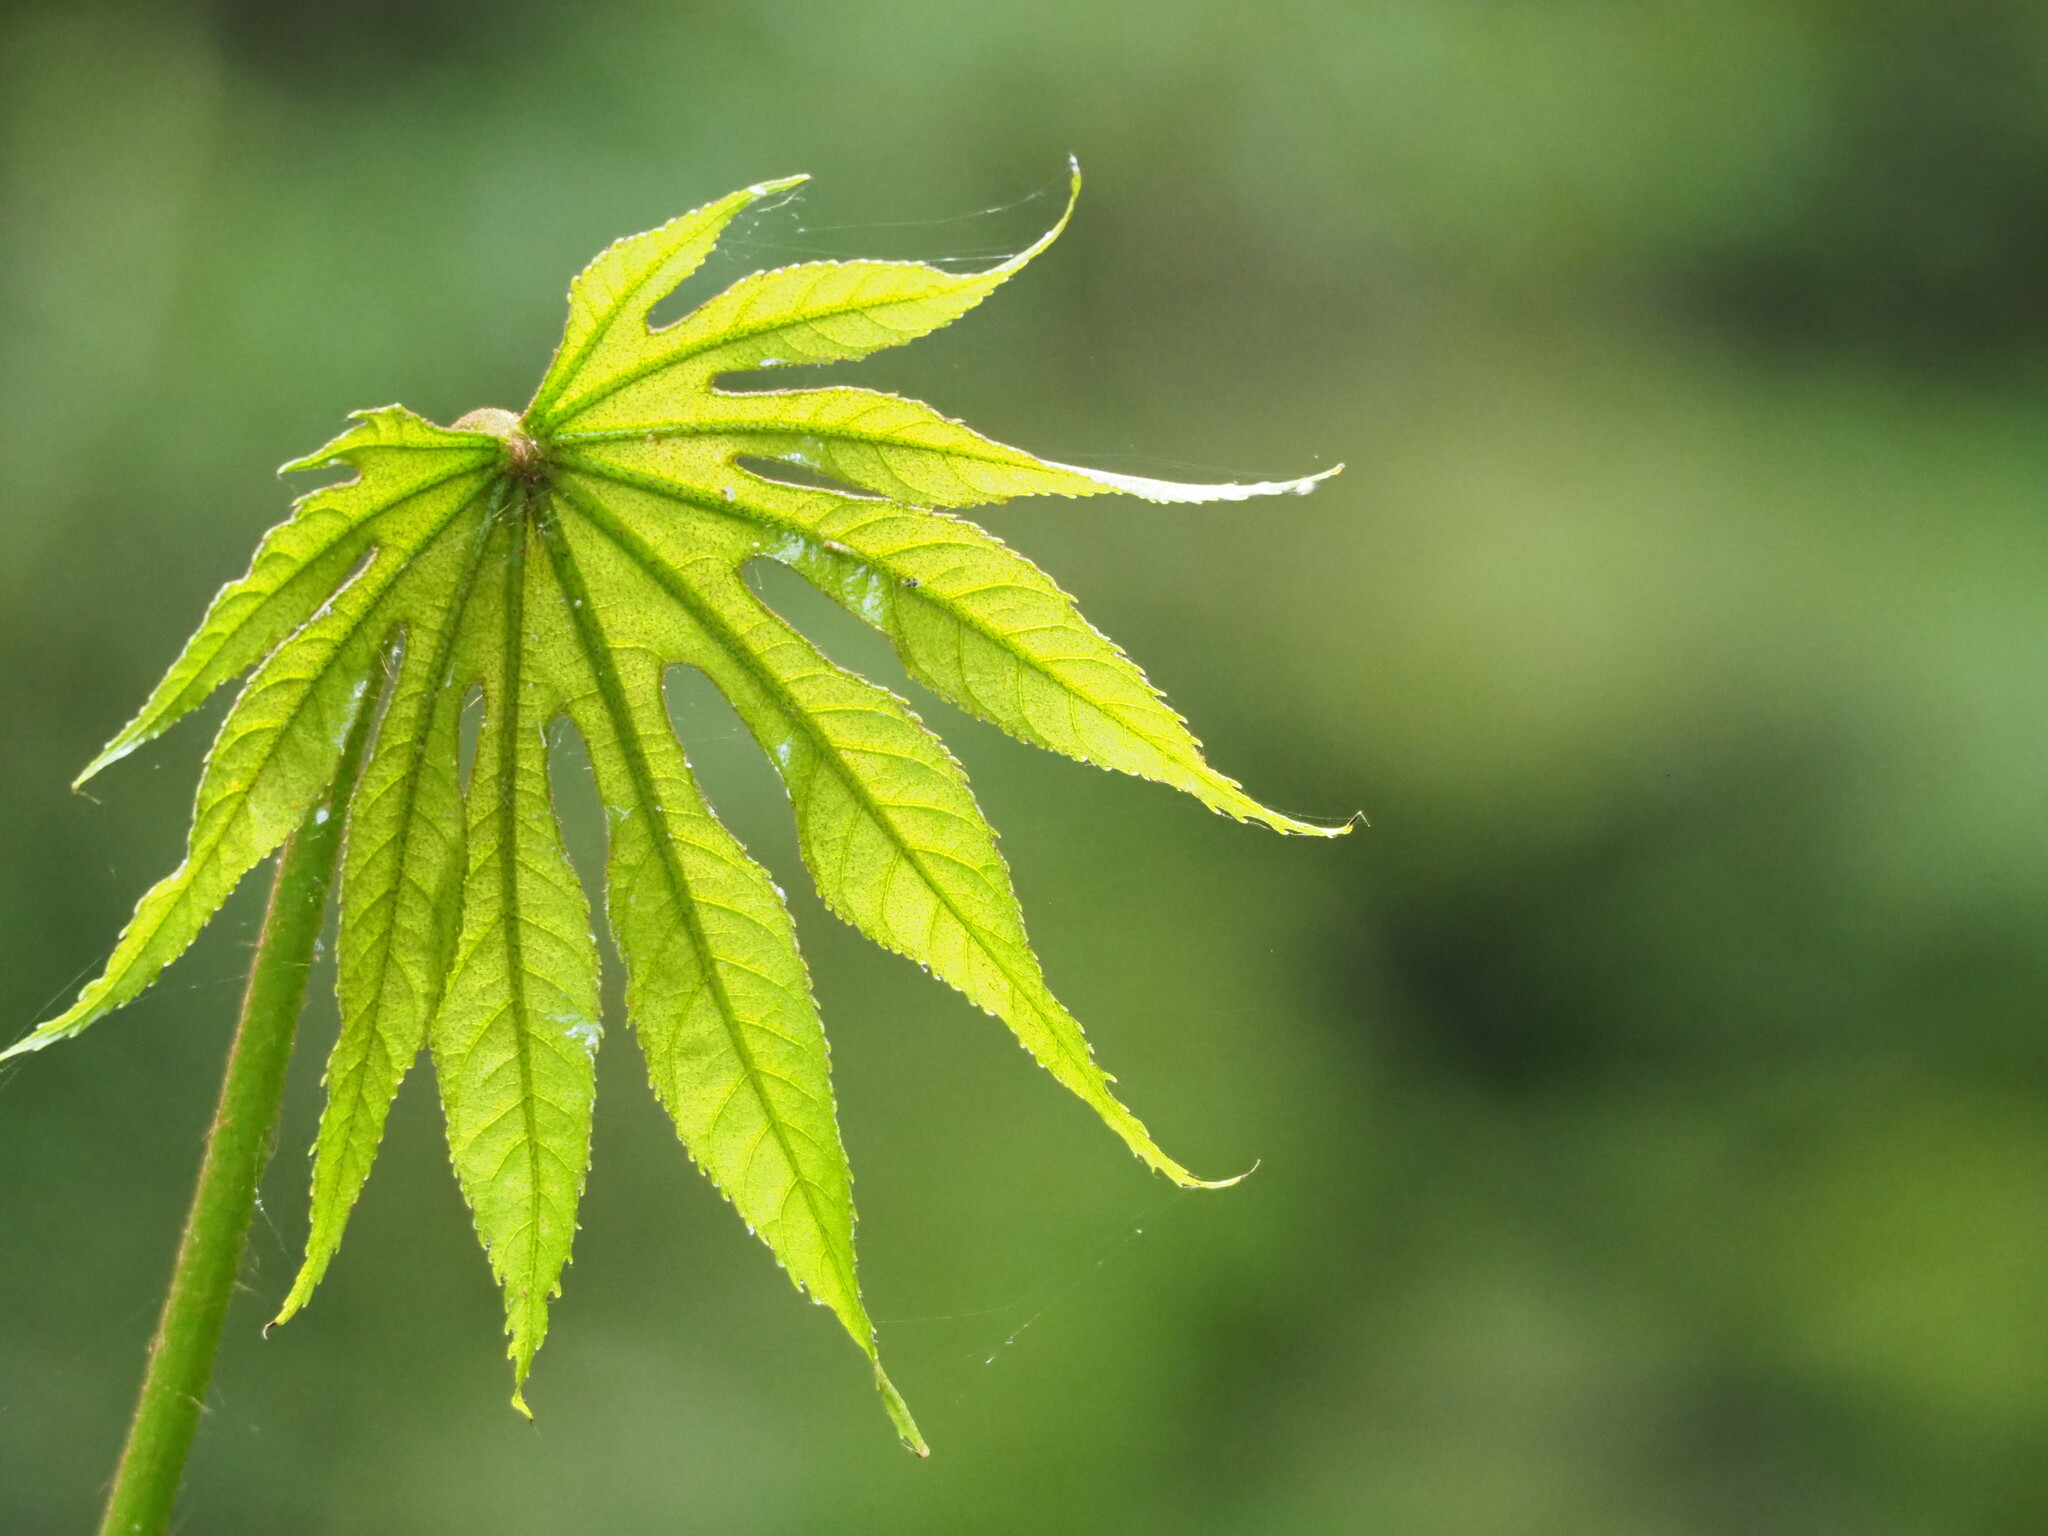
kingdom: Plantae
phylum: Tracheophyta
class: Magnoliopsida
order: Apiales
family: Araliaceae
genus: Fatsia
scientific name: Fatsia polycarpa
